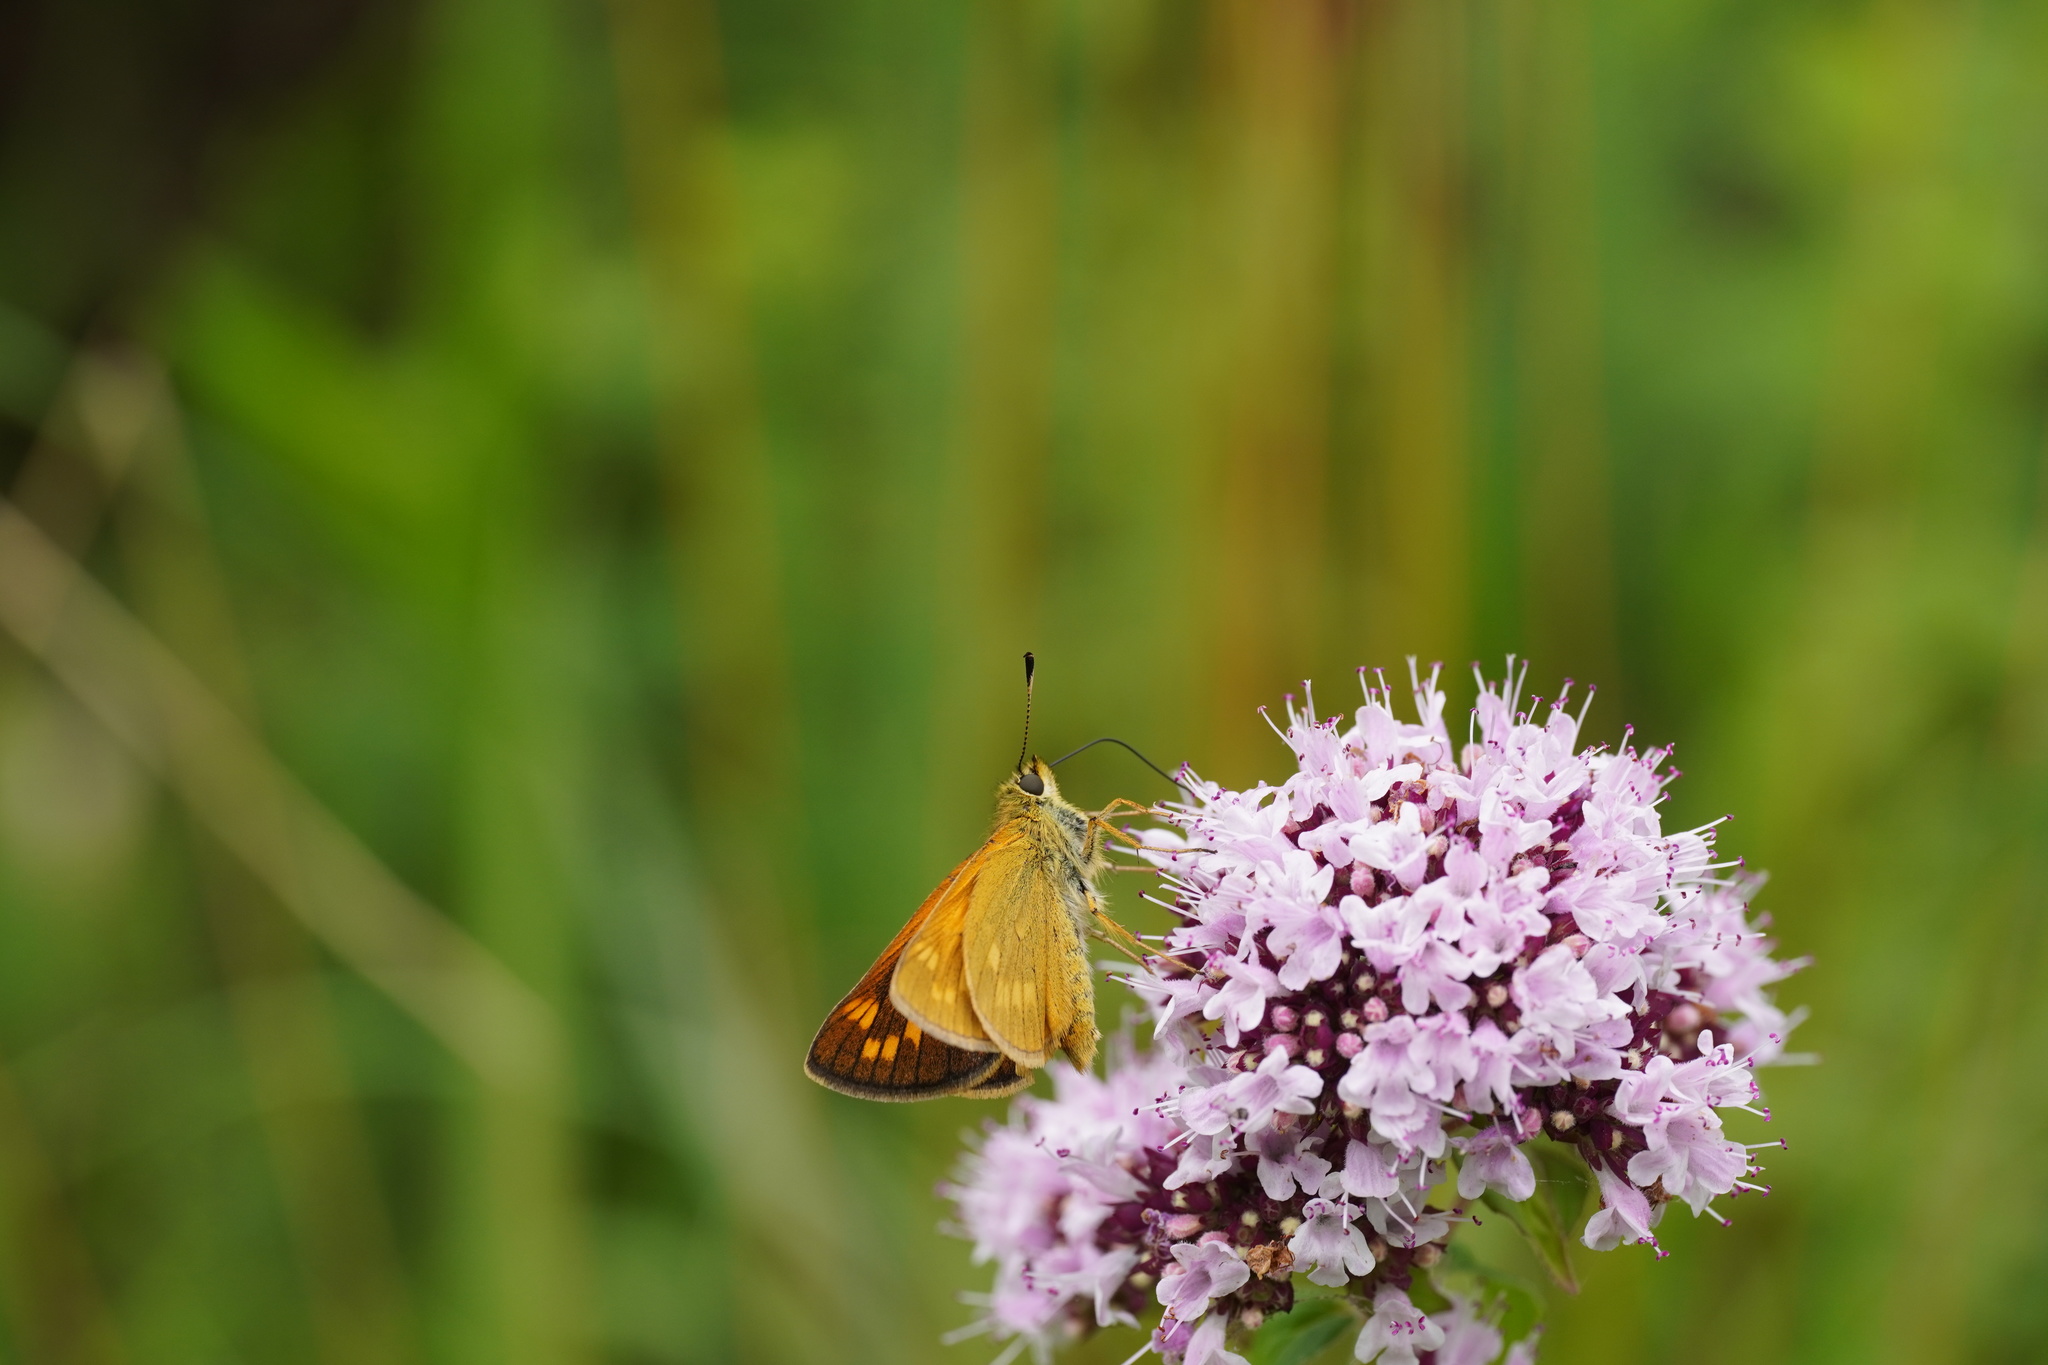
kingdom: Animalia
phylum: Arthropoda
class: Insecta
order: Lepidoptera
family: Hesperiidae
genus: Ochlodes
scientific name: Ochlodes venata
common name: Large skipper
